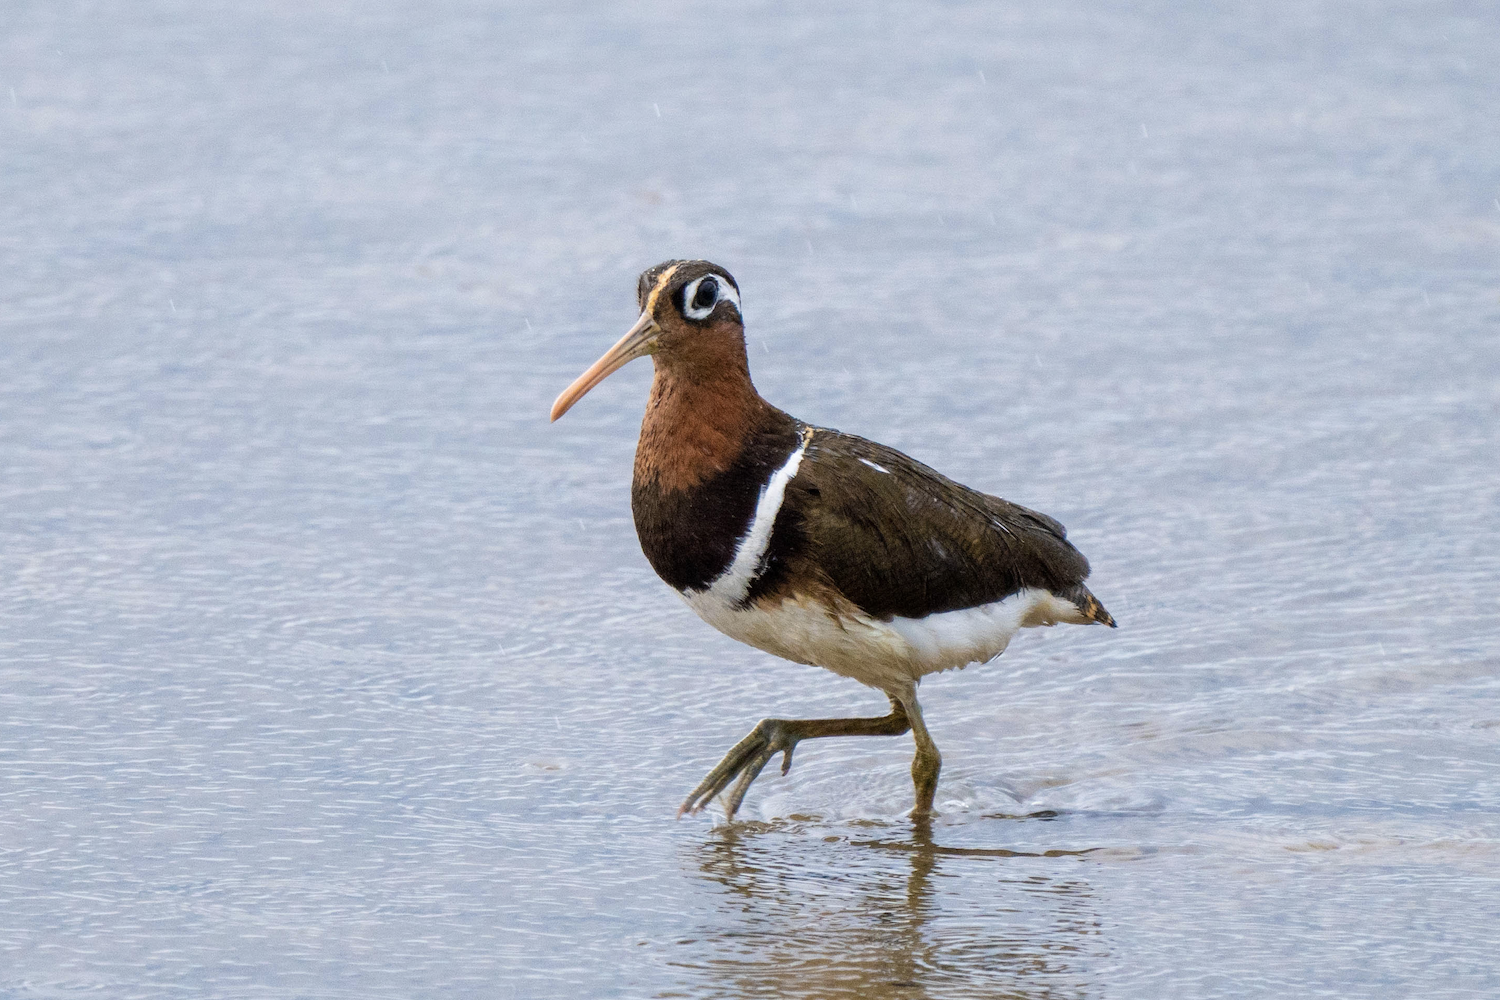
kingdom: Animalia
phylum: Chordata
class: Aves
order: Charadriiformes
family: Rostratulidae
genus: Rostratula
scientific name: Rostratula benghalensis
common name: Greater painted-snipe
